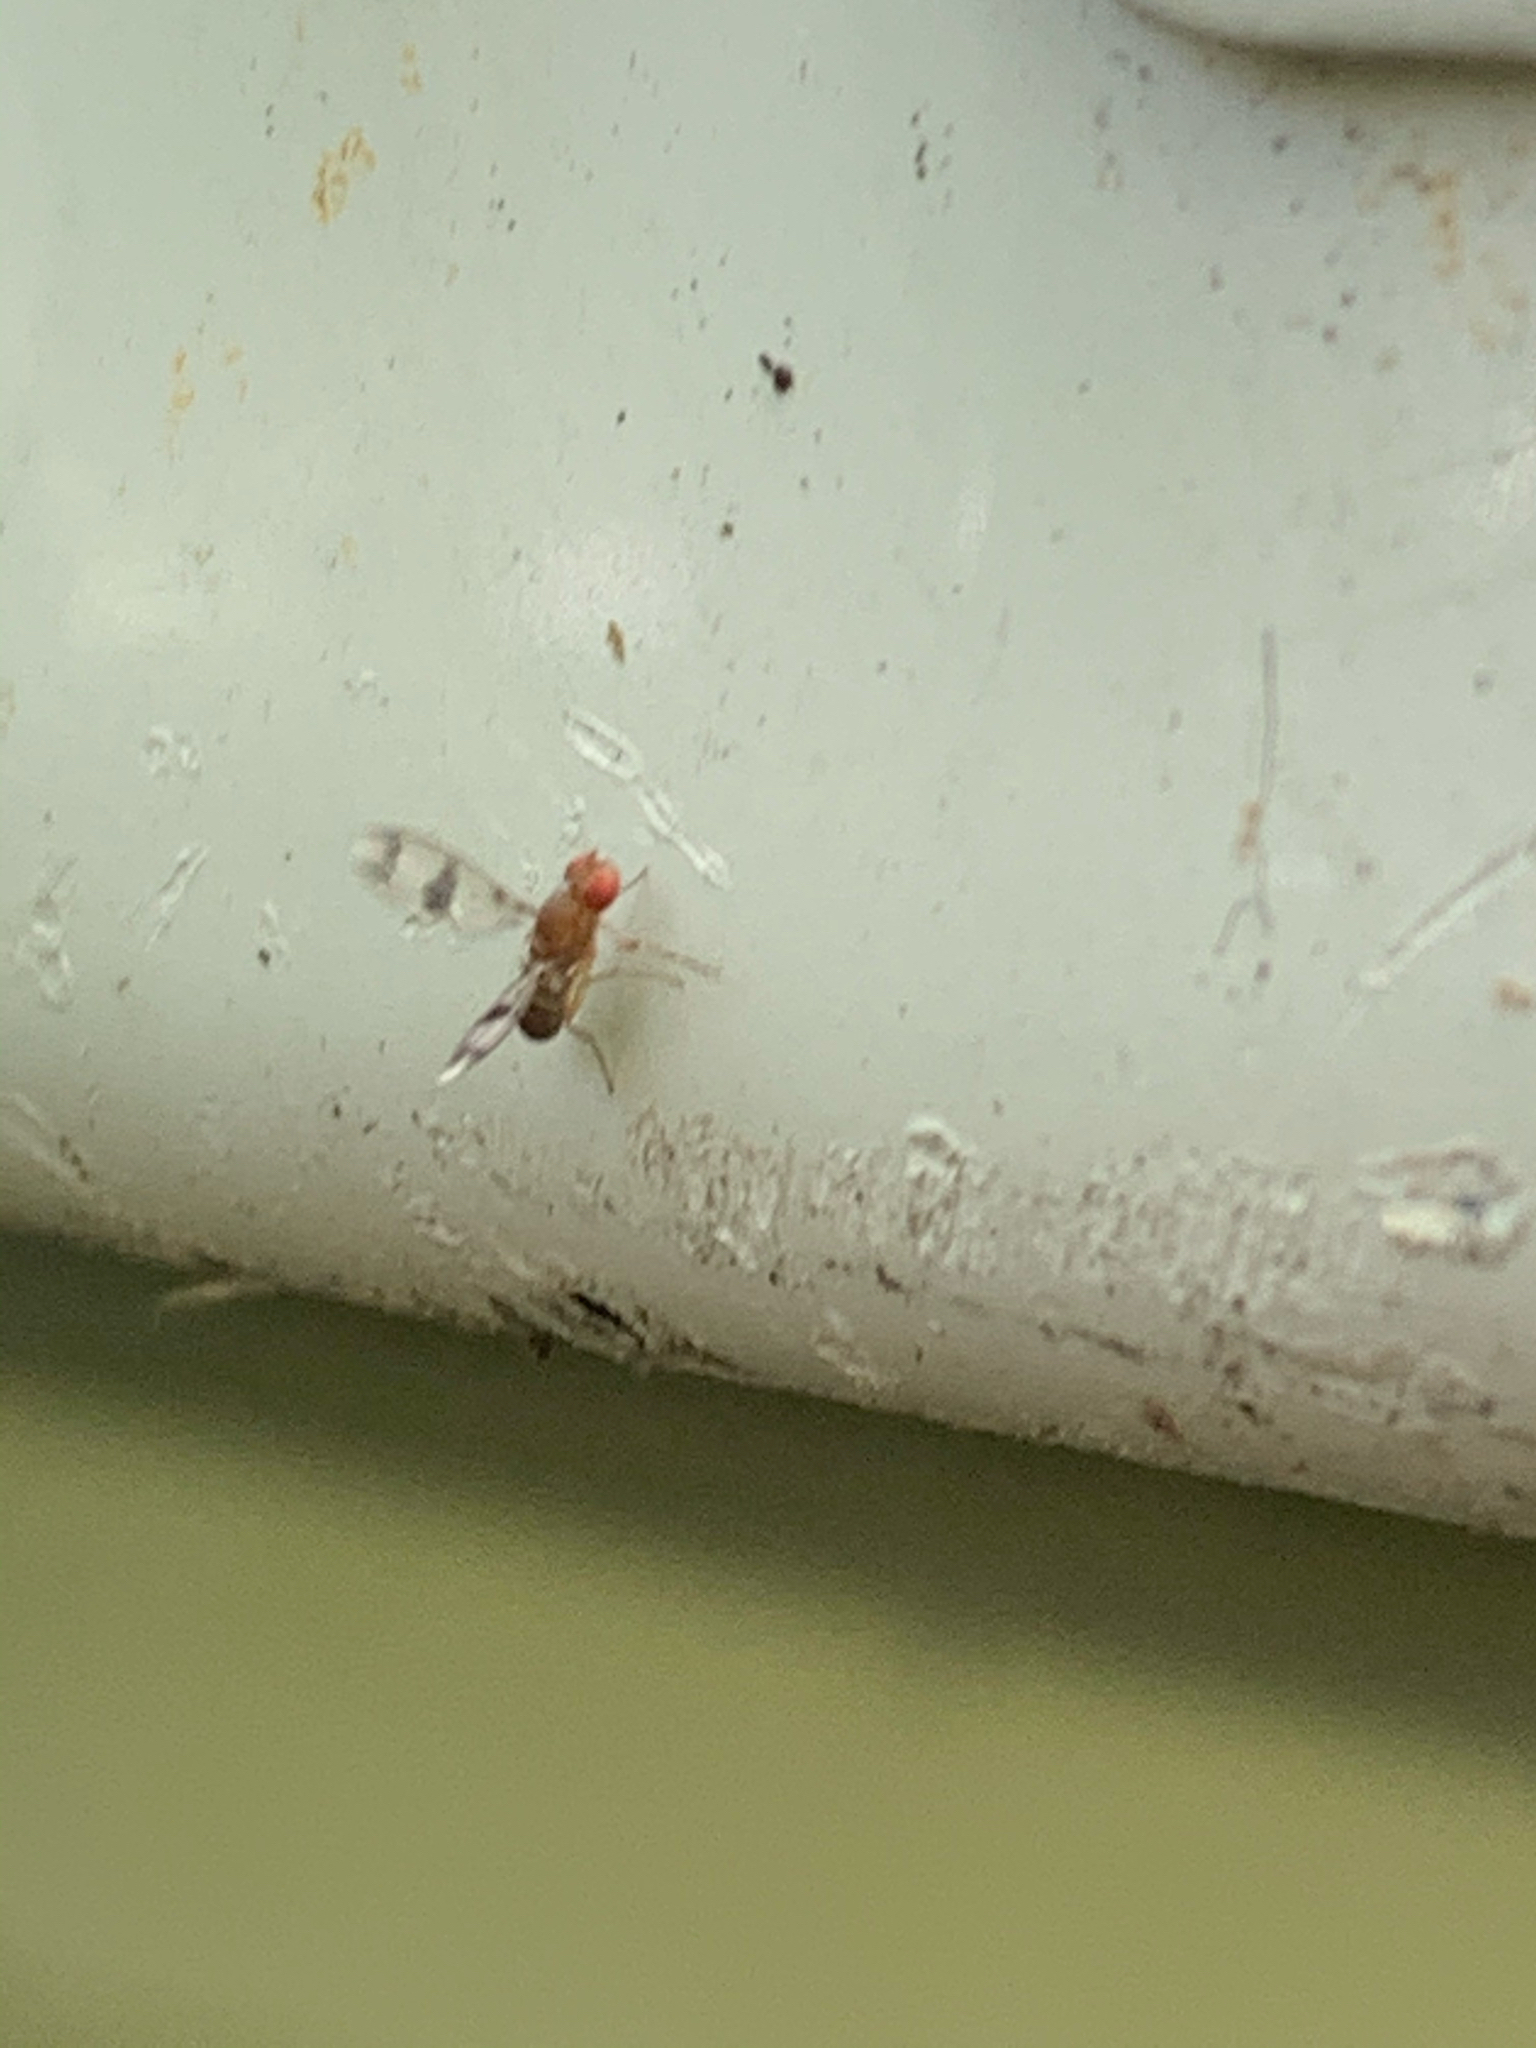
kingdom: Animalia
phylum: Arthropoda
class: Insecta
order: Diptera
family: Drosophilidae
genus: Chymomyza
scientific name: Chymomyza amoena
